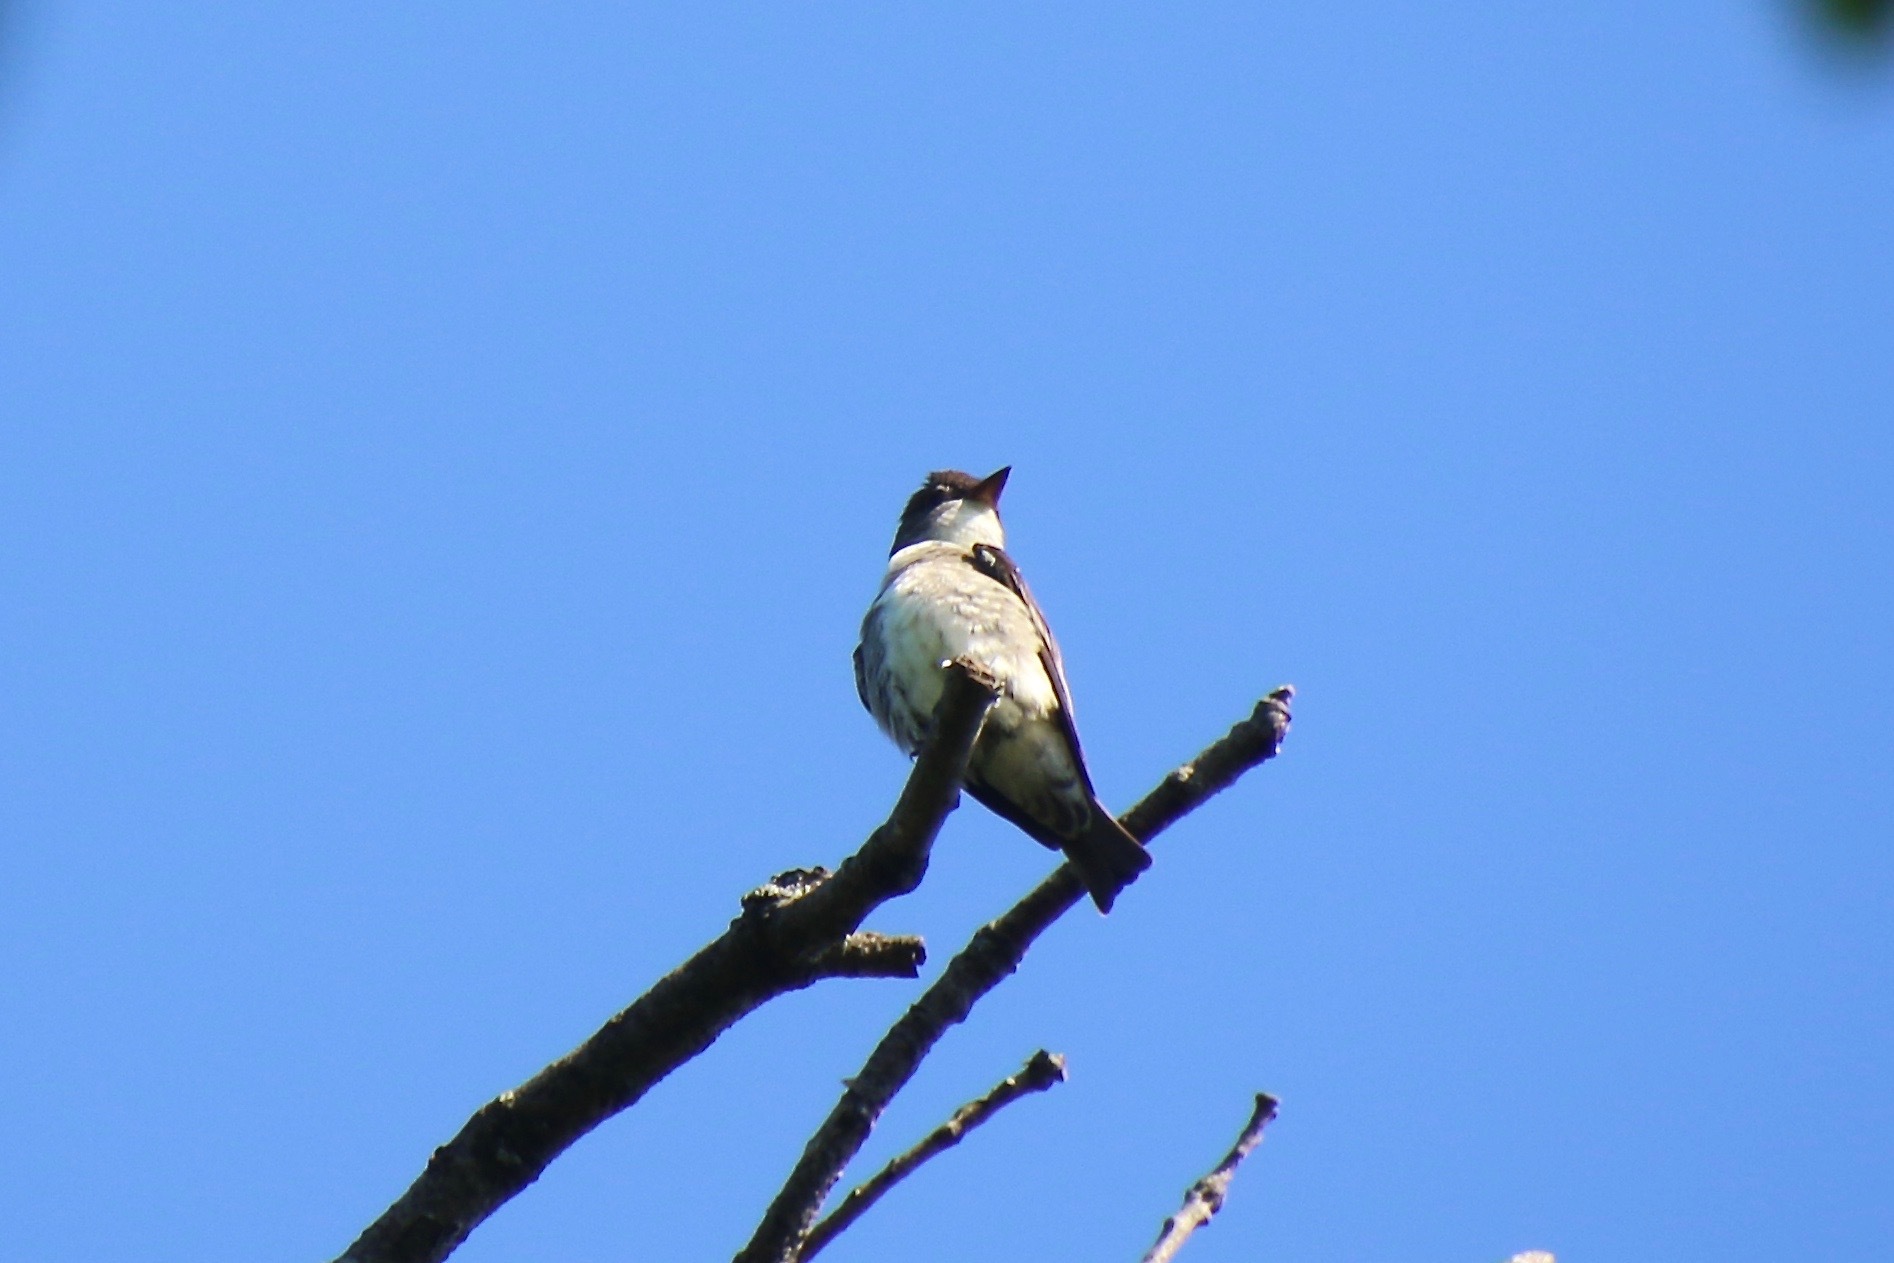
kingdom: Animalia
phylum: Chordata
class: Aves
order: Passeriformes
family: Tyrannidae
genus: Contopus
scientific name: Contopus cooperi
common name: Olive-sided flycatcher
